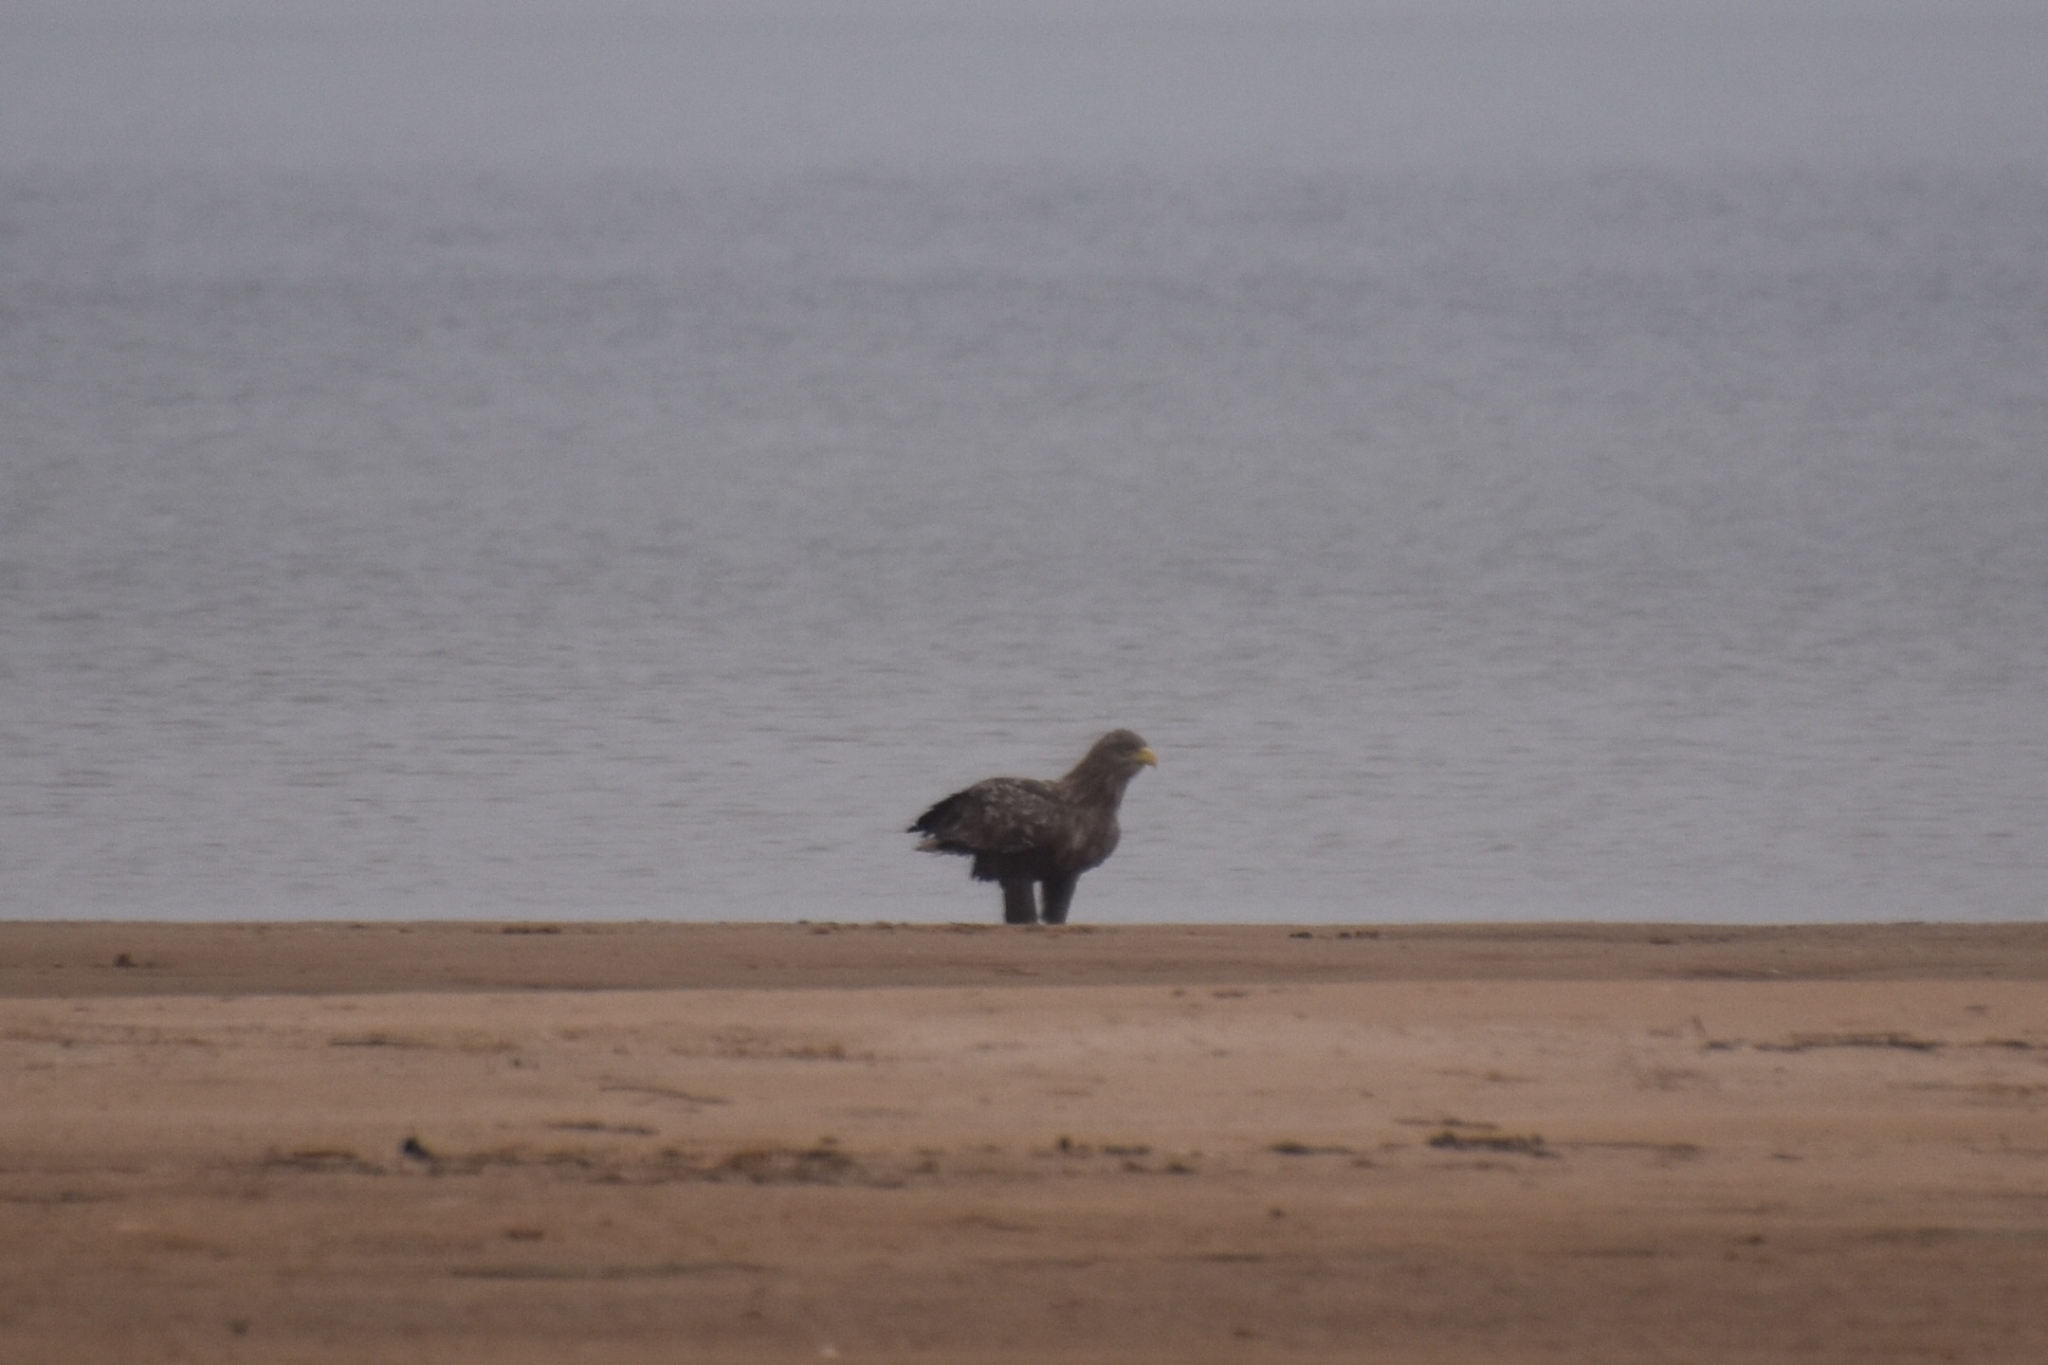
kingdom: Animalia
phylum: Chordata
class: Aves
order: Accipitriformes
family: Accipitridae
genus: Haliaeetus
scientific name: Haliaeetus albicilla
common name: White-tailed eagle
